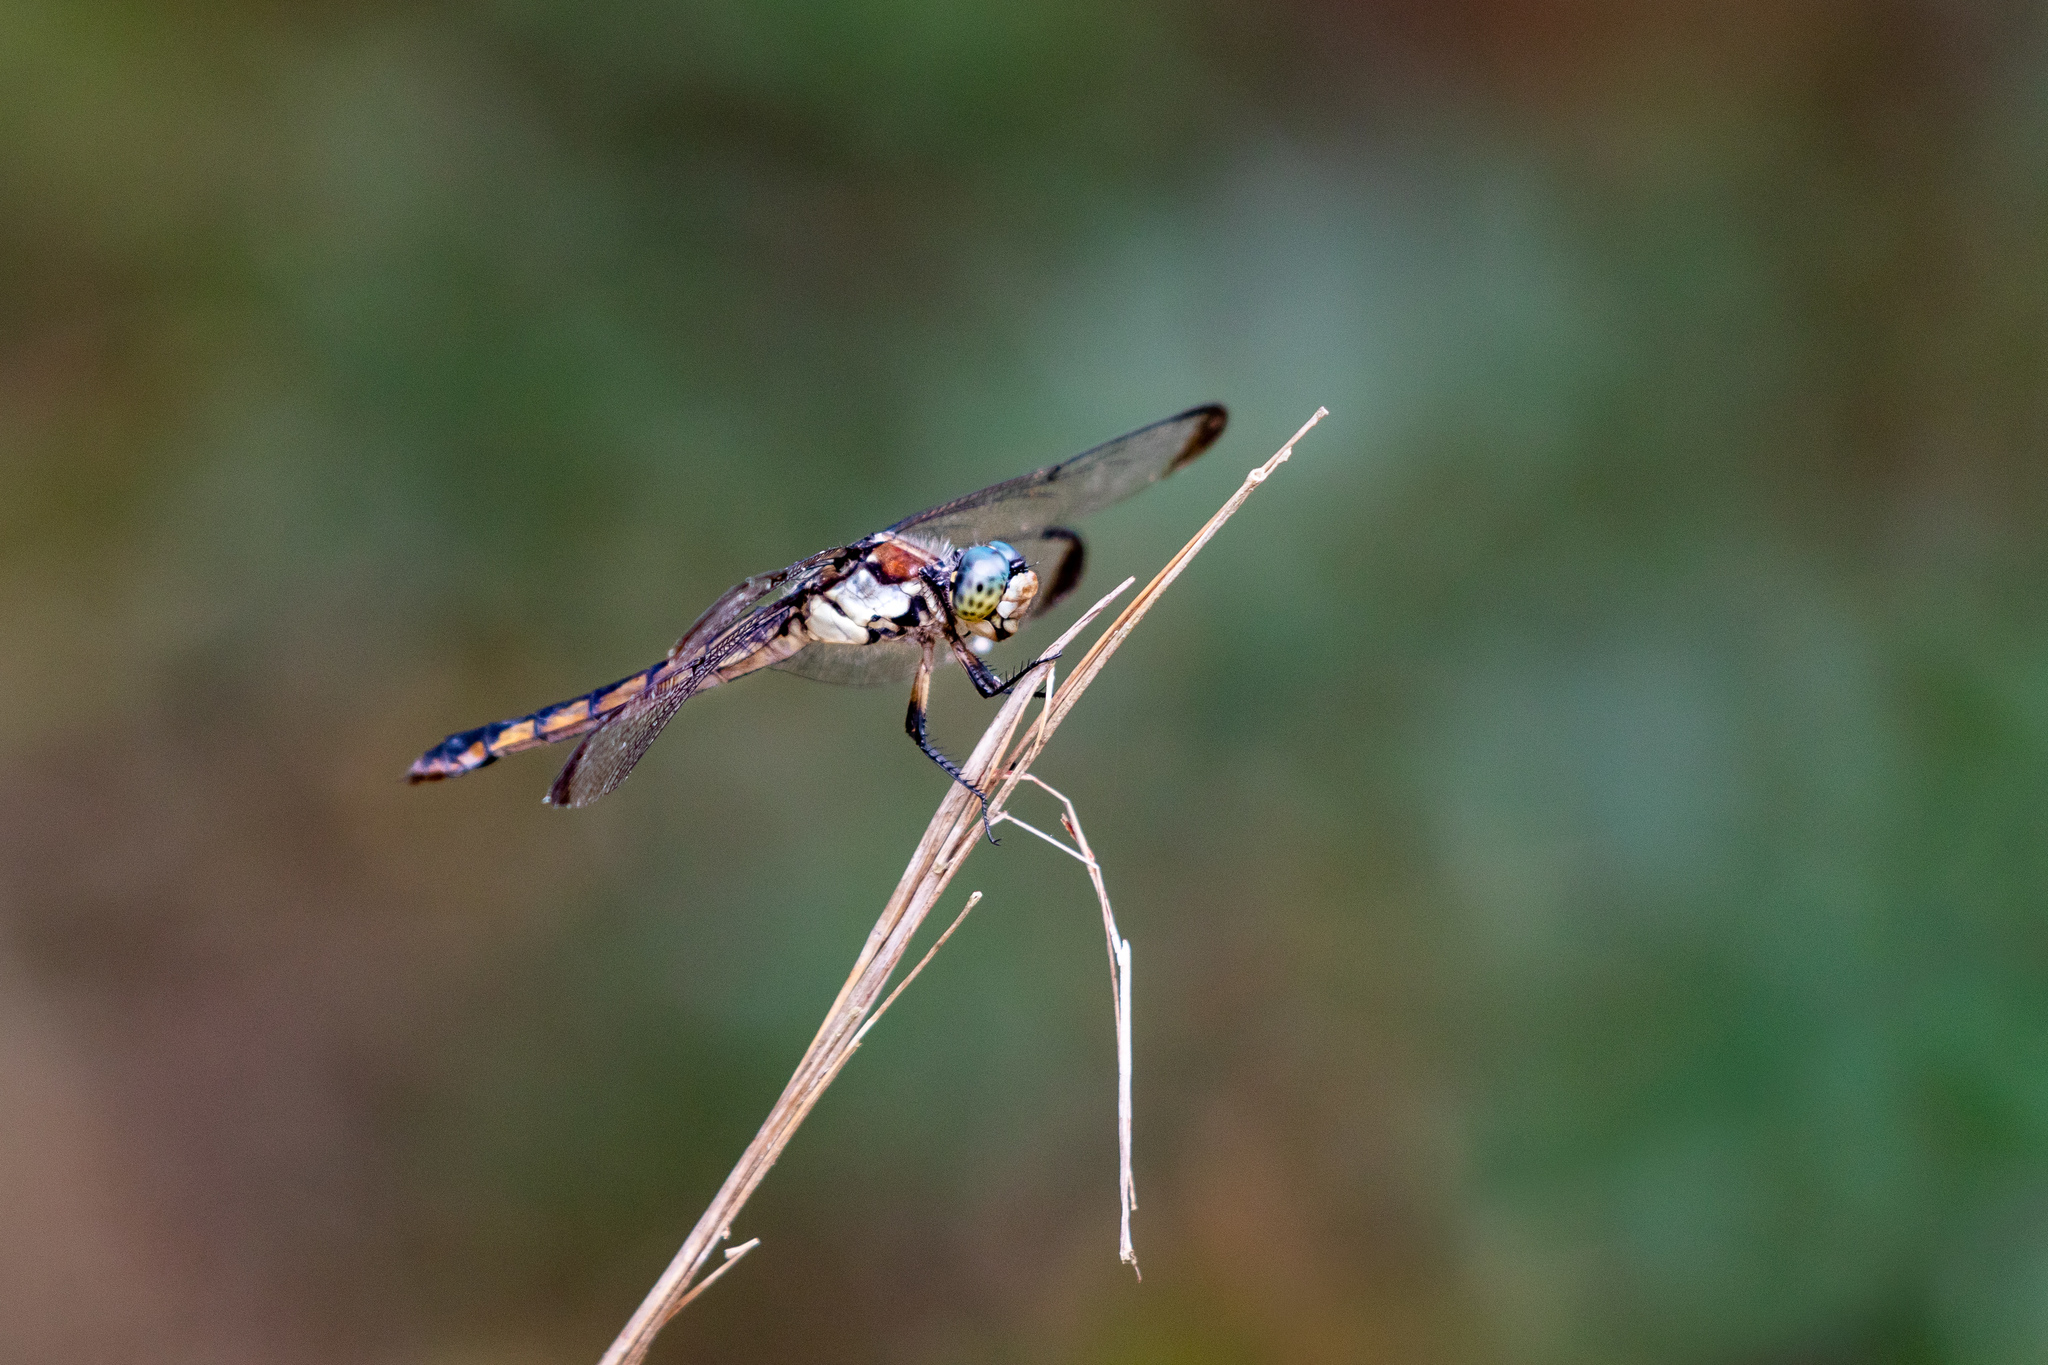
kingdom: Animalia
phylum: Arthropoda
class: Insecta
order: Odonata
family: Libellulidae
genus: Libellula
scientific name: Libellula vibrans
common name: Great blue skimmer
